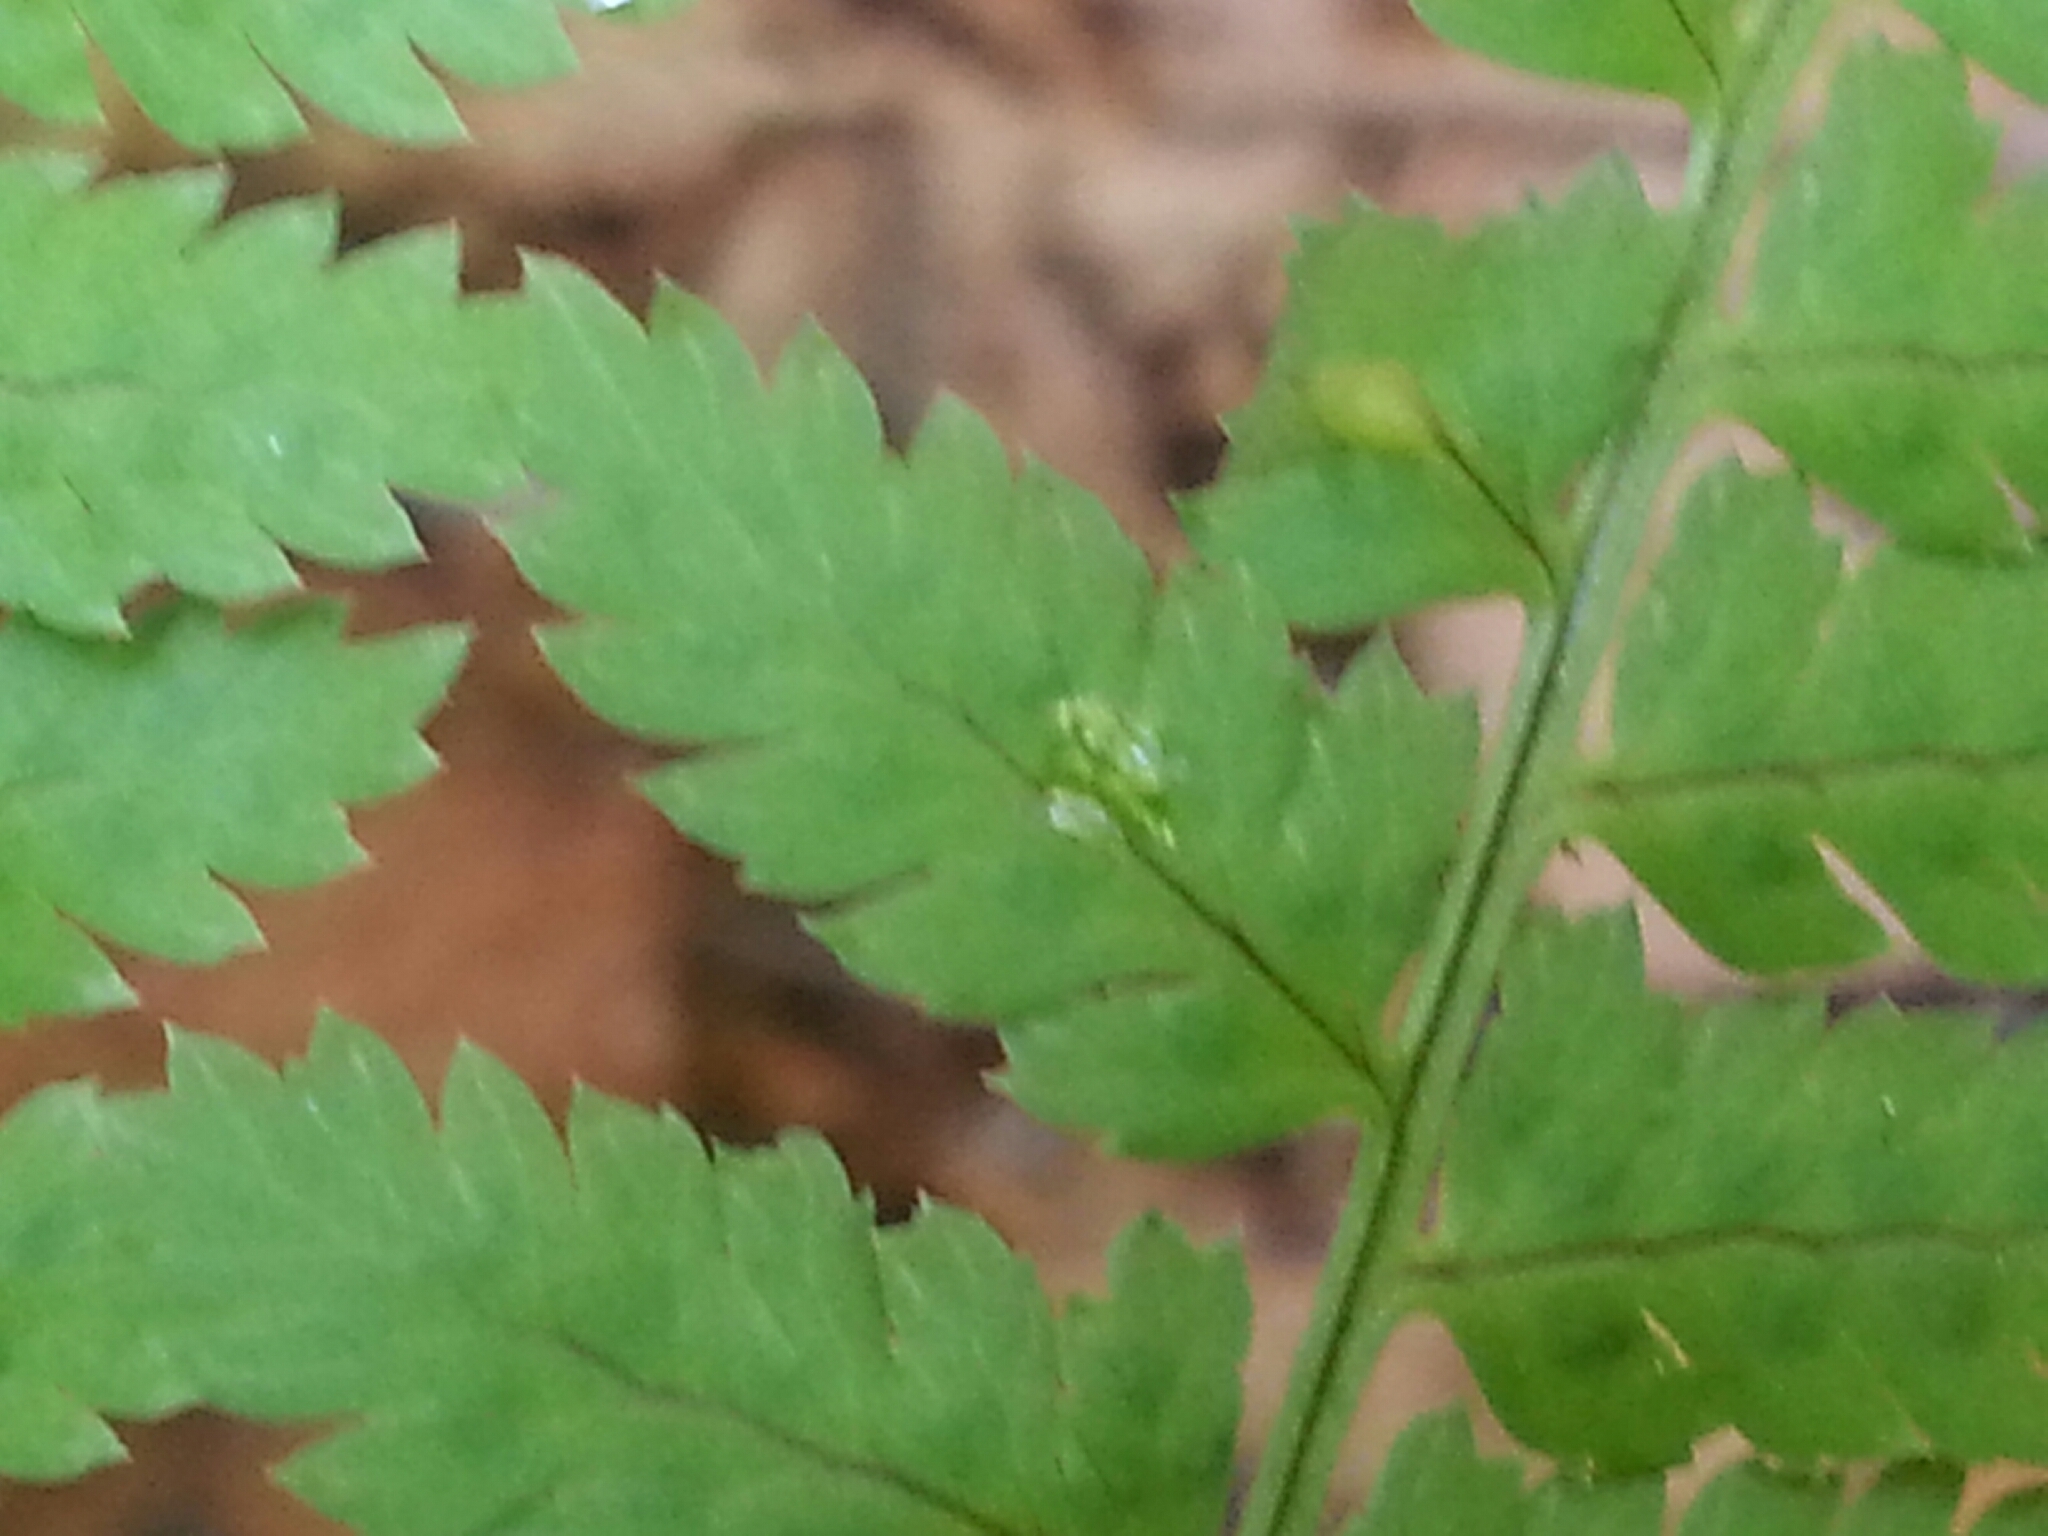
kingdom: Plantae
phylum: Tracheophyta
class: Polypodiopsida
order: Polypodiales
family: Dryopteridaceae
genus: Dryopteris
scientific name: Dryopteris intermedia
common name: Evergreen wood fern
